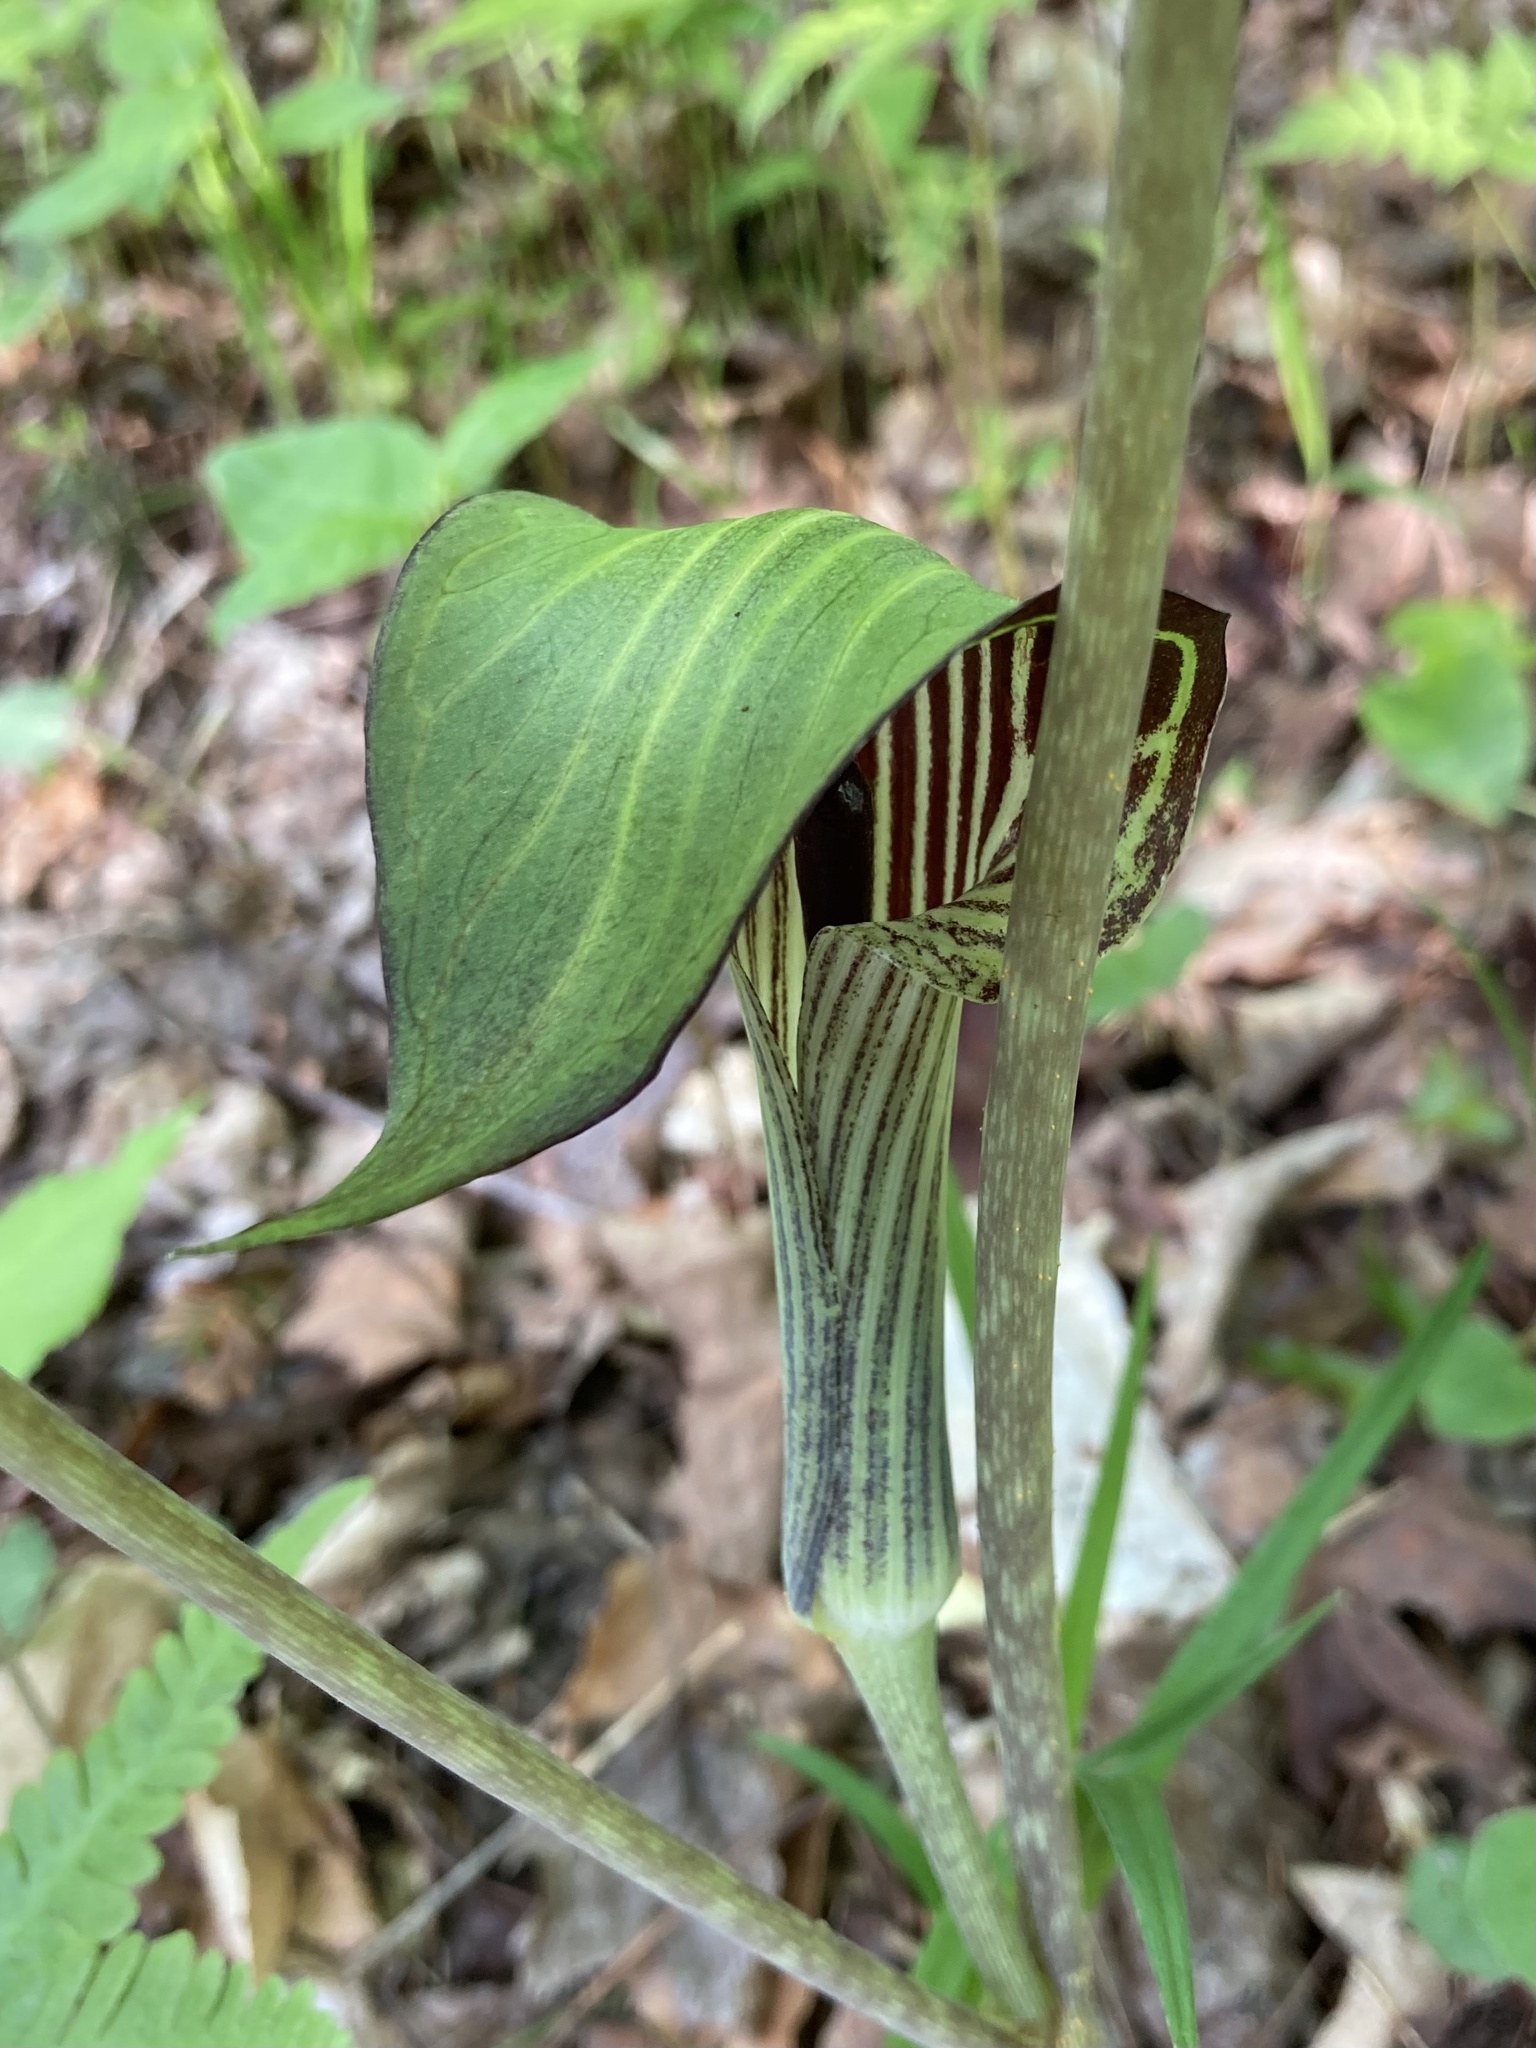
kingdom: Plantae
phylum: Tracheophyta
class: Liliopsida
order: Alismatales
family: Araceae
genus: Arisaema
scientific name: Arisaema triphyllum
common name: Jack-in-the-pulpit
